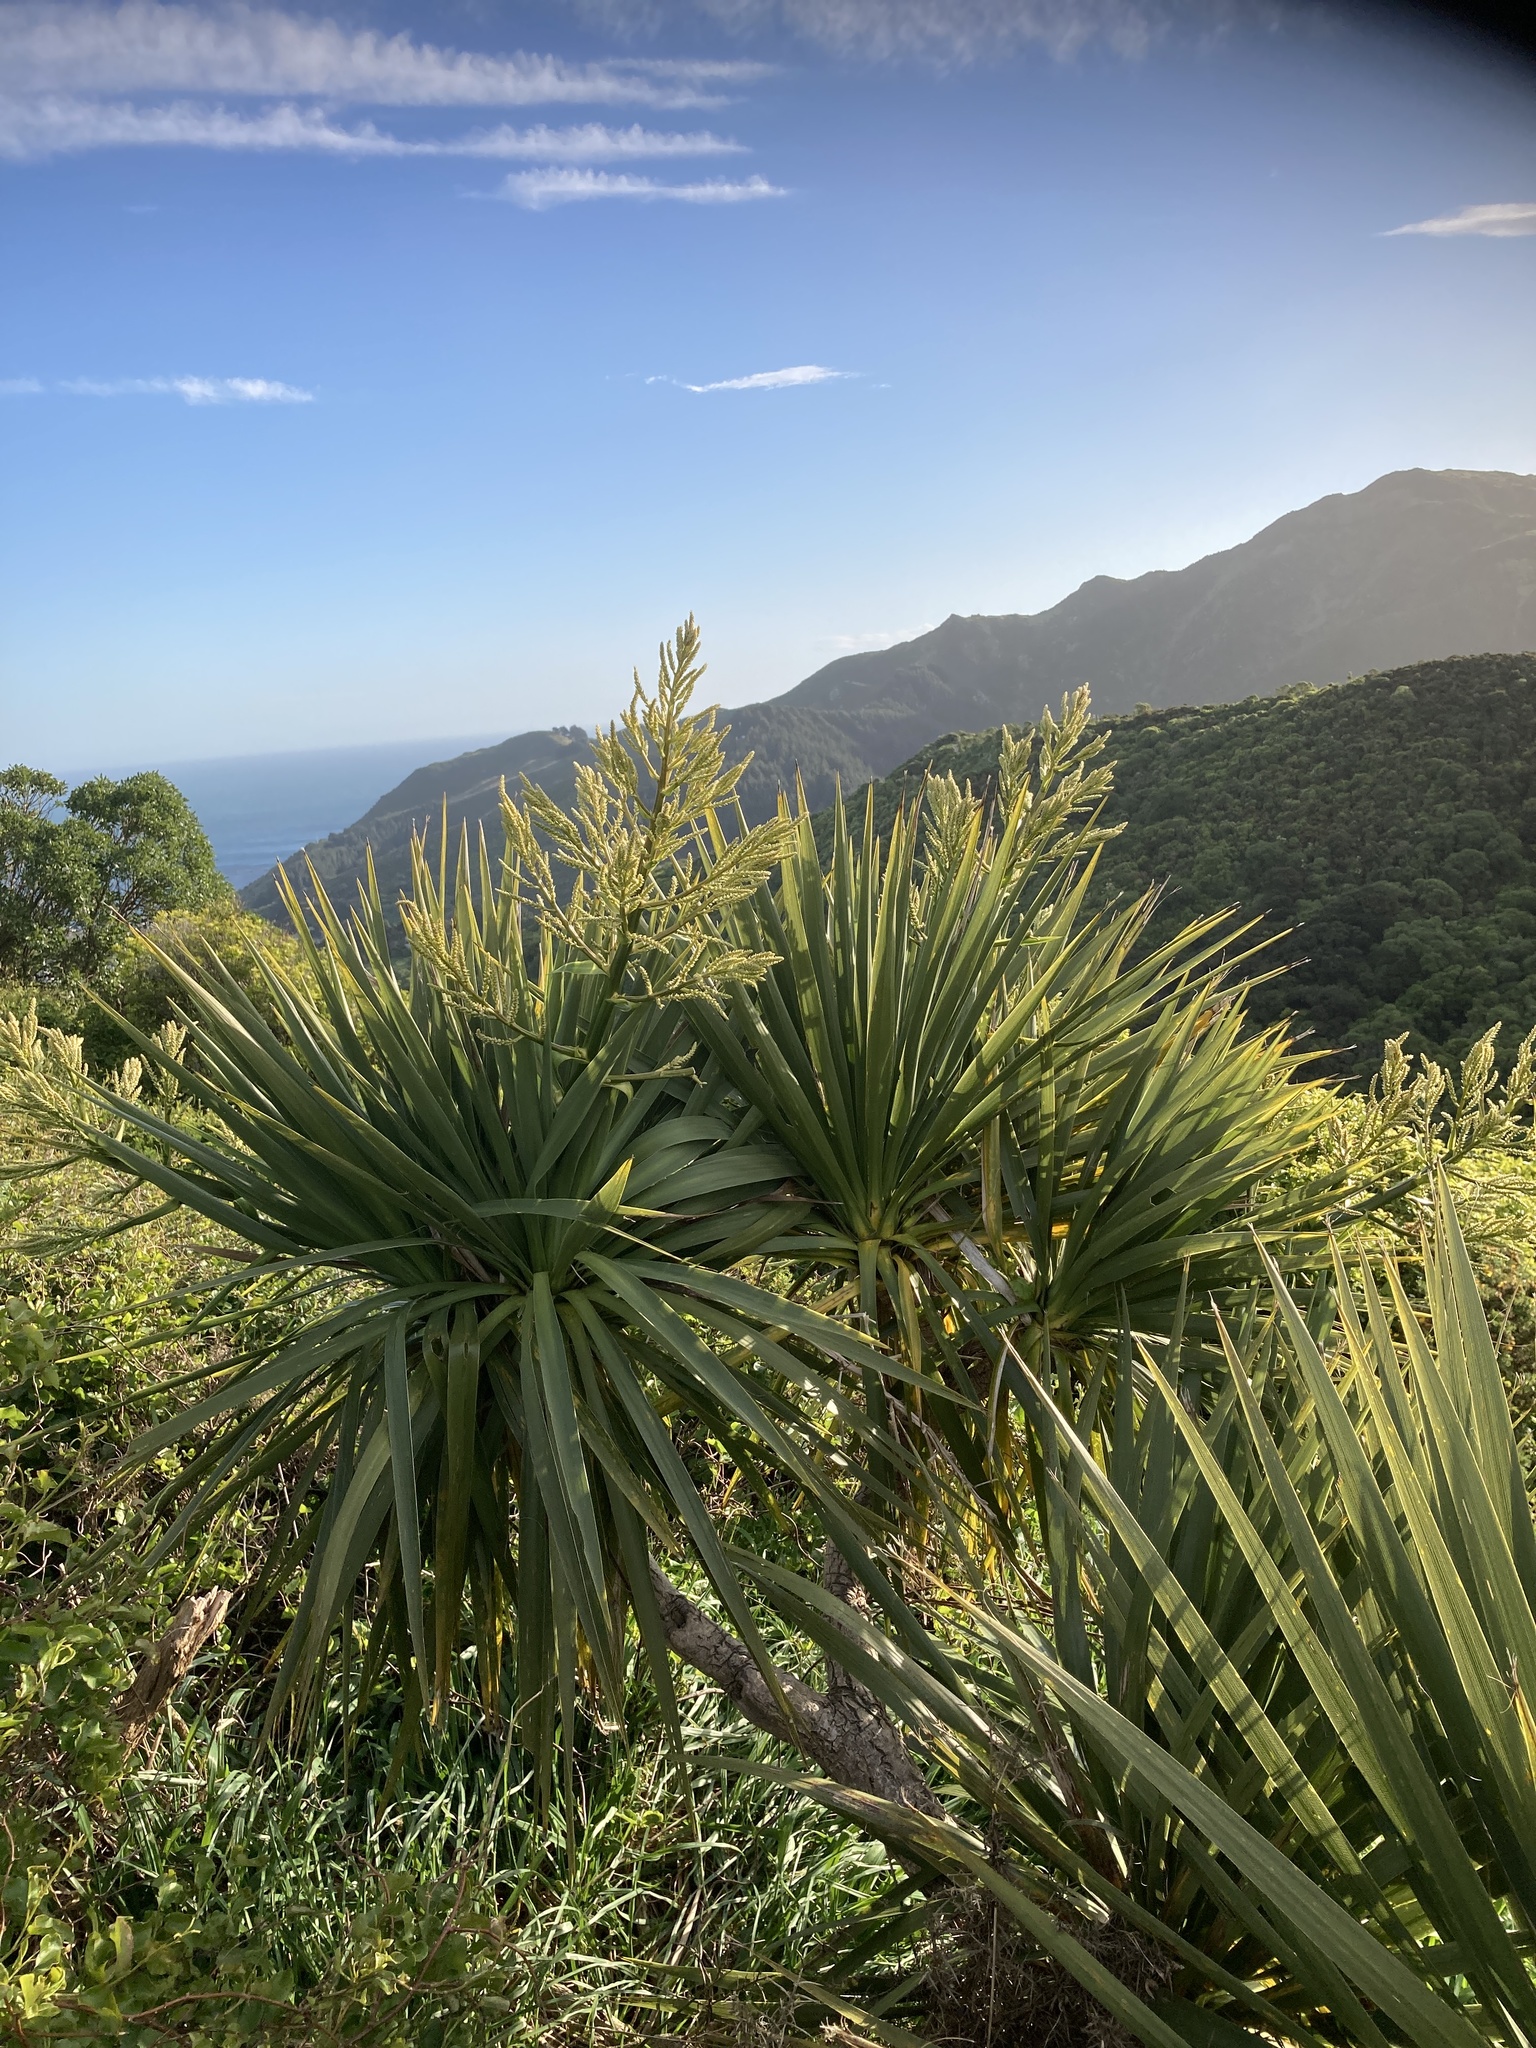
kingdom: Plantae
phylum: Tracheophyta
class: Liliopsida
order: Asparagales
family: Asparagaceae
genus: Cordyline
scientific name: Cordyline australis
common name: Cabbage-palm
